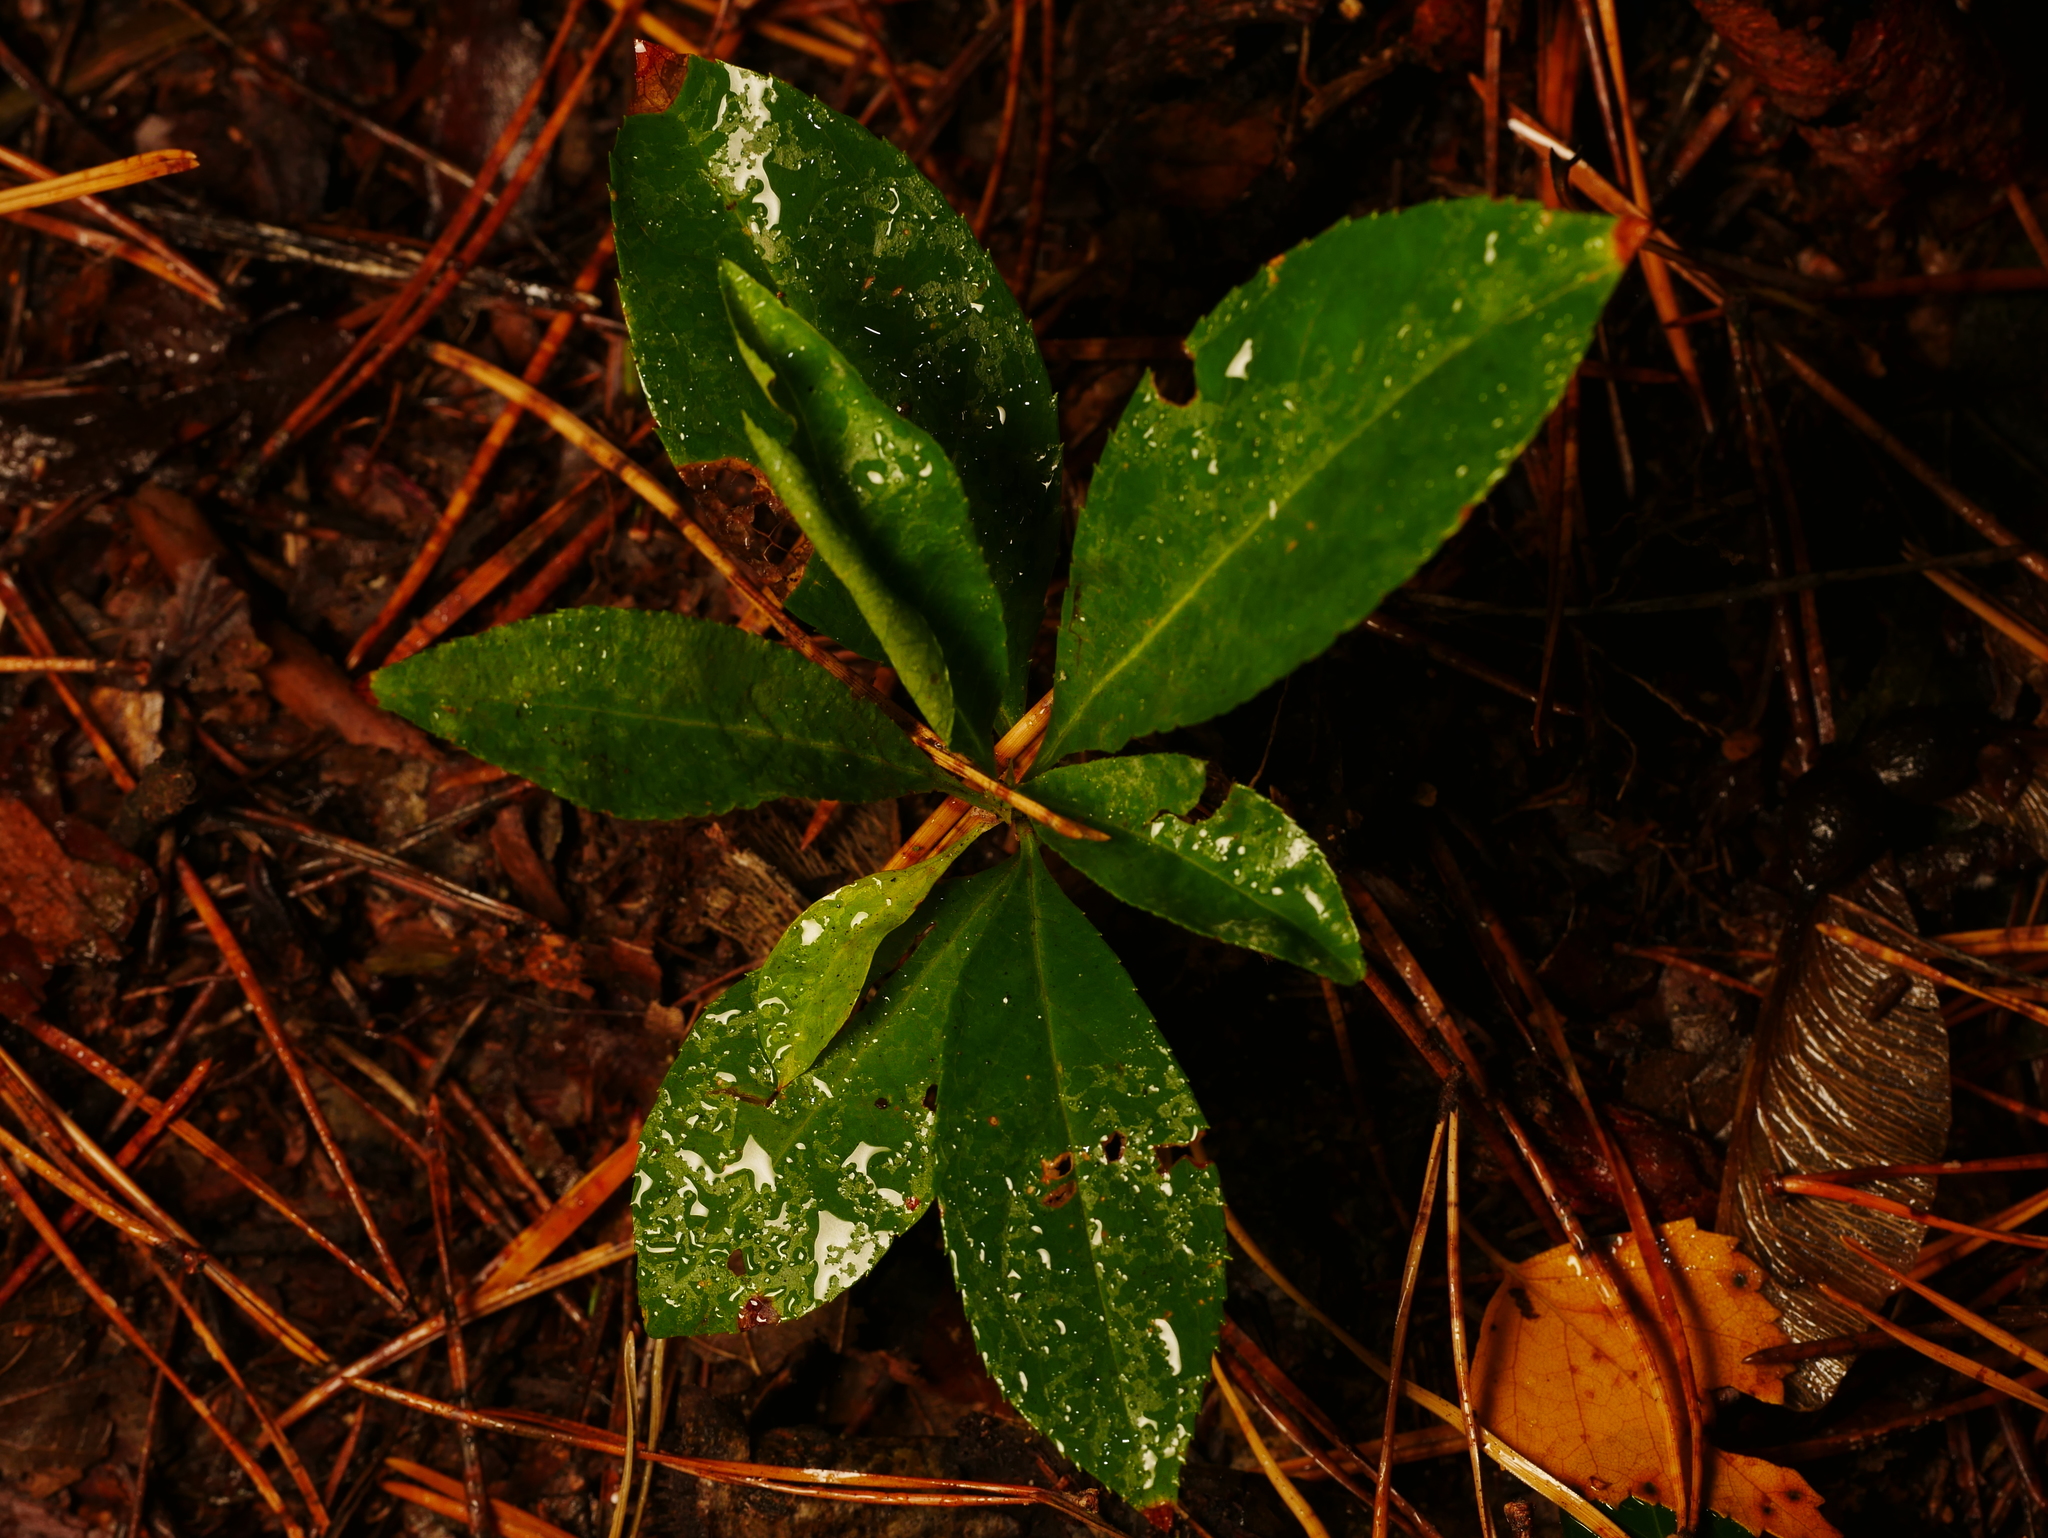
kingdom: Plantae
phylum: Tracheophyta
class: Magnoliopsida
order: Rosales
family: Rosaceae
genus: Prunus
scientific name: Prunus serotina
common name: Black cherry
